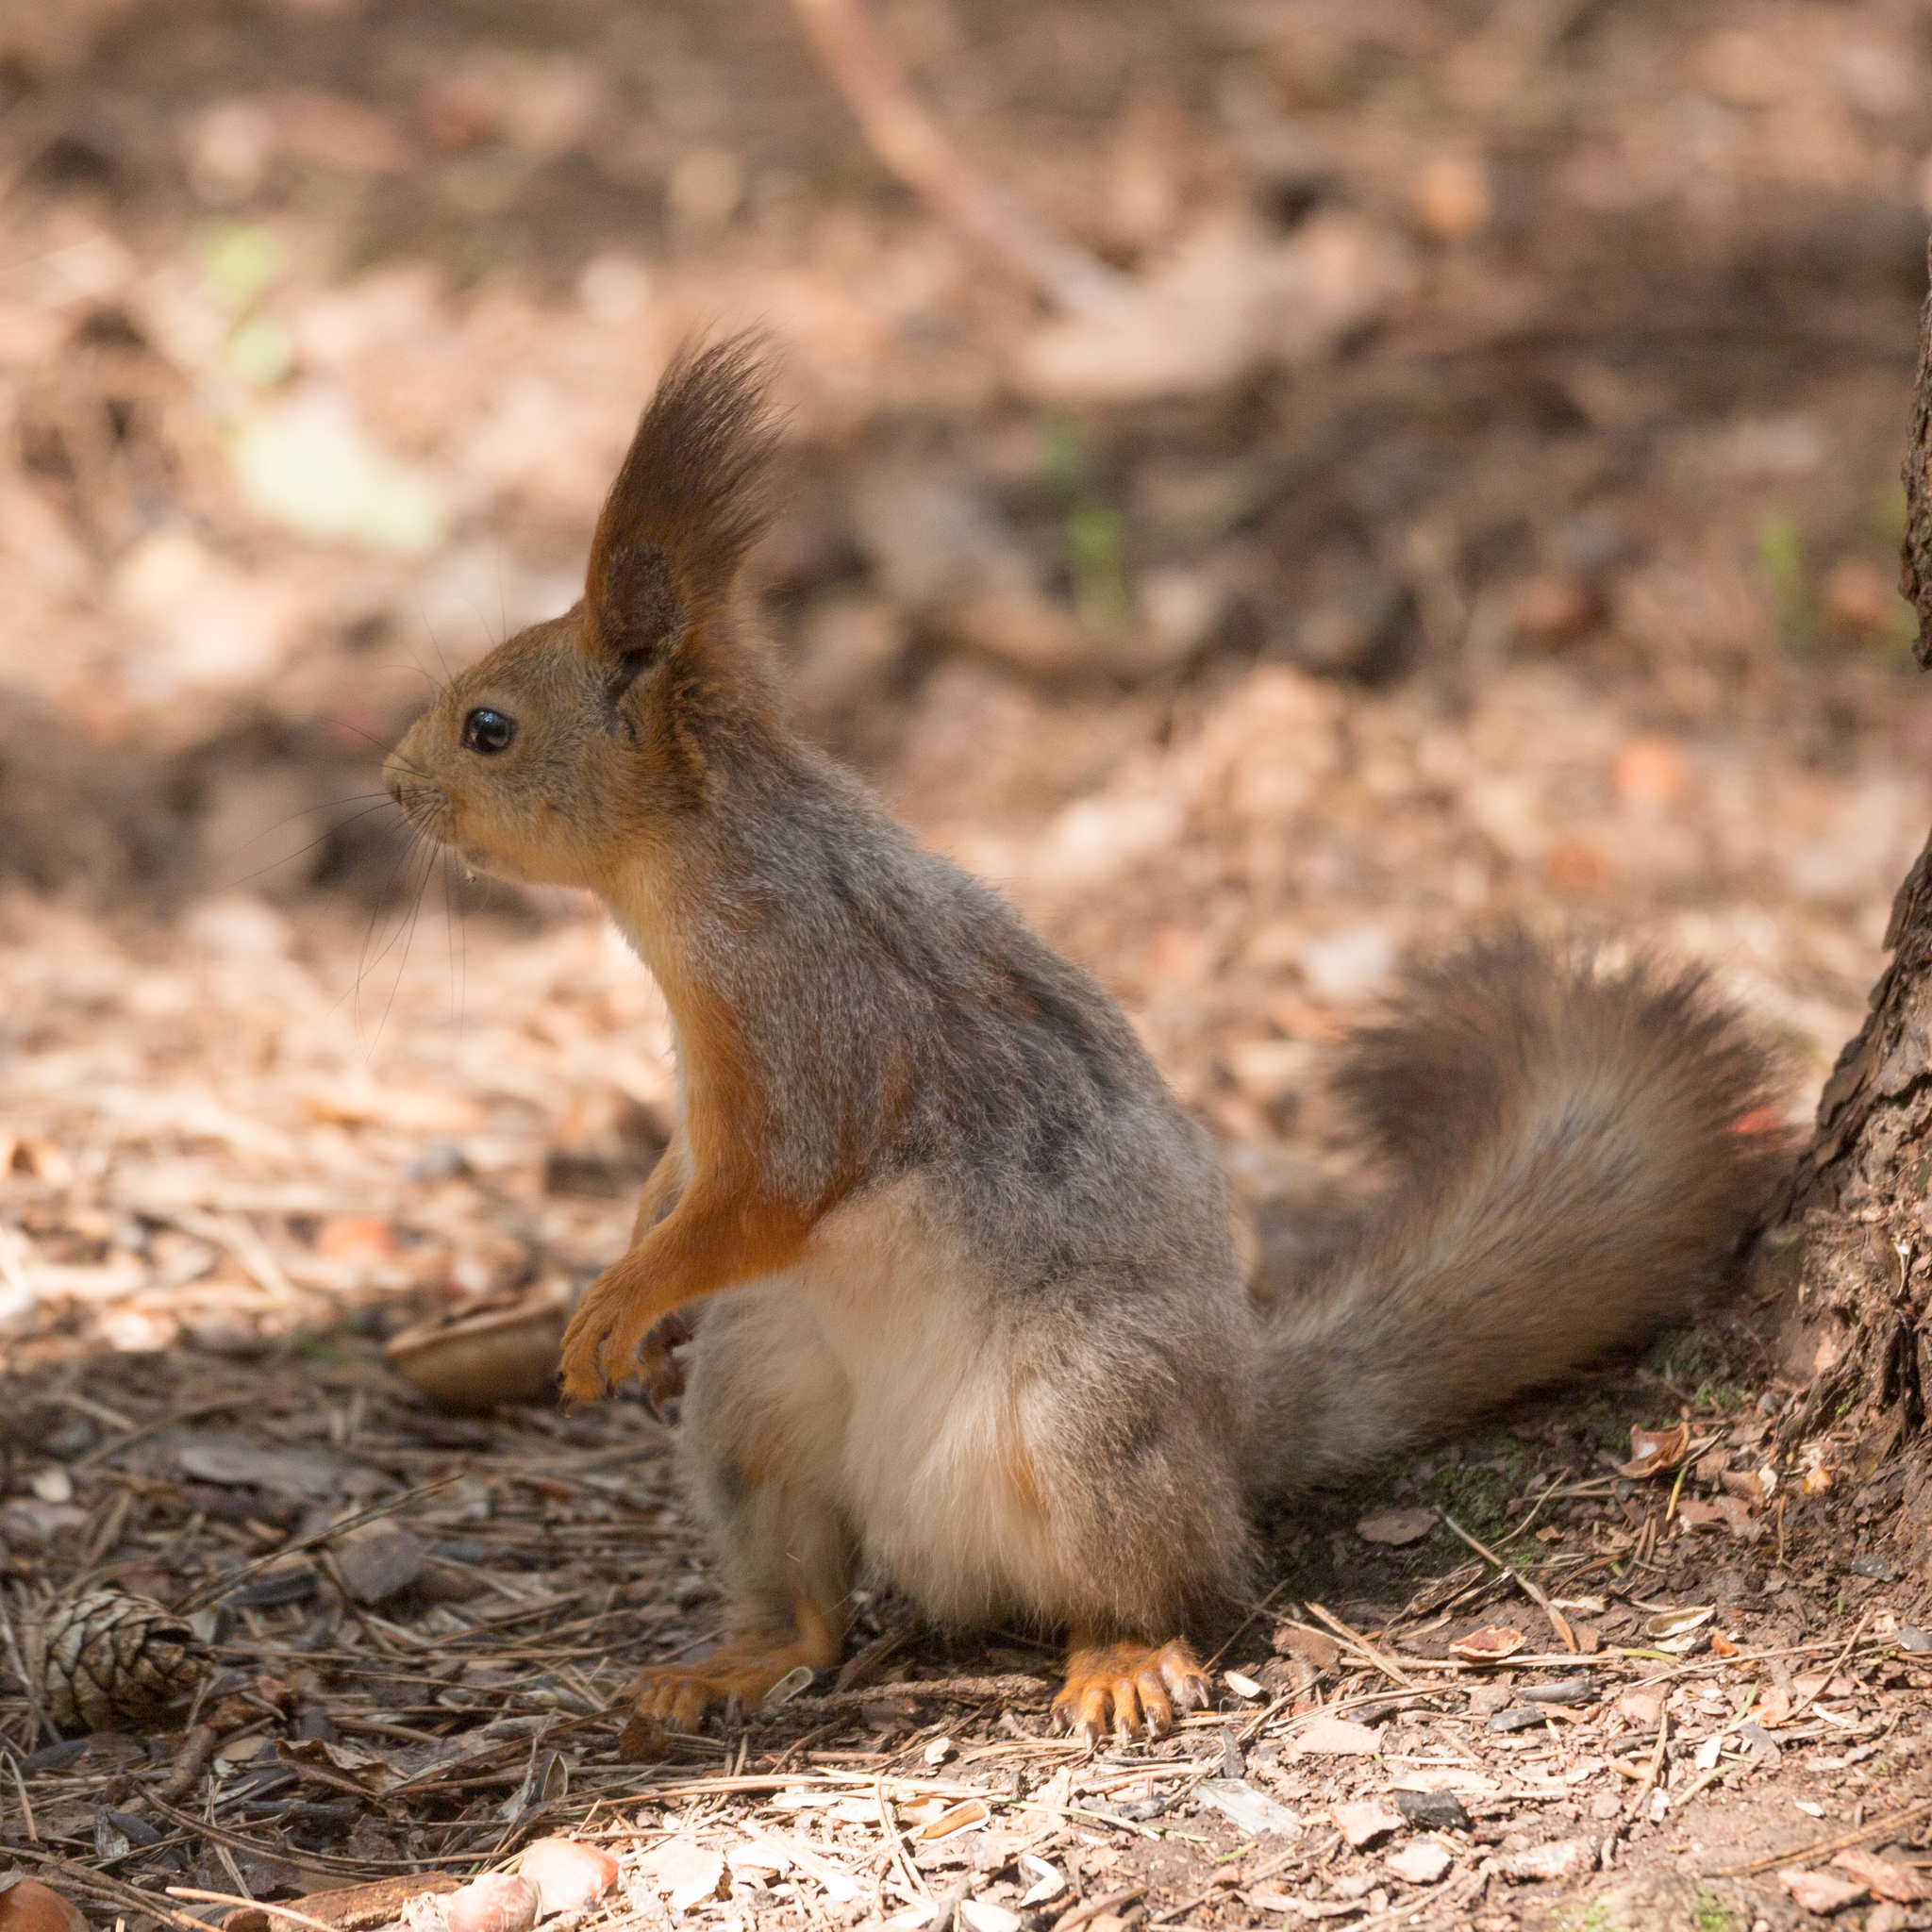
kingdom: Animalia
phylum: Chordata
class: Mammalia
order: Rodentia
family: Sciuridae
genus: Sciurus
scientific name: Sciurus vulgaris
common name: Eurasian red squirrel
